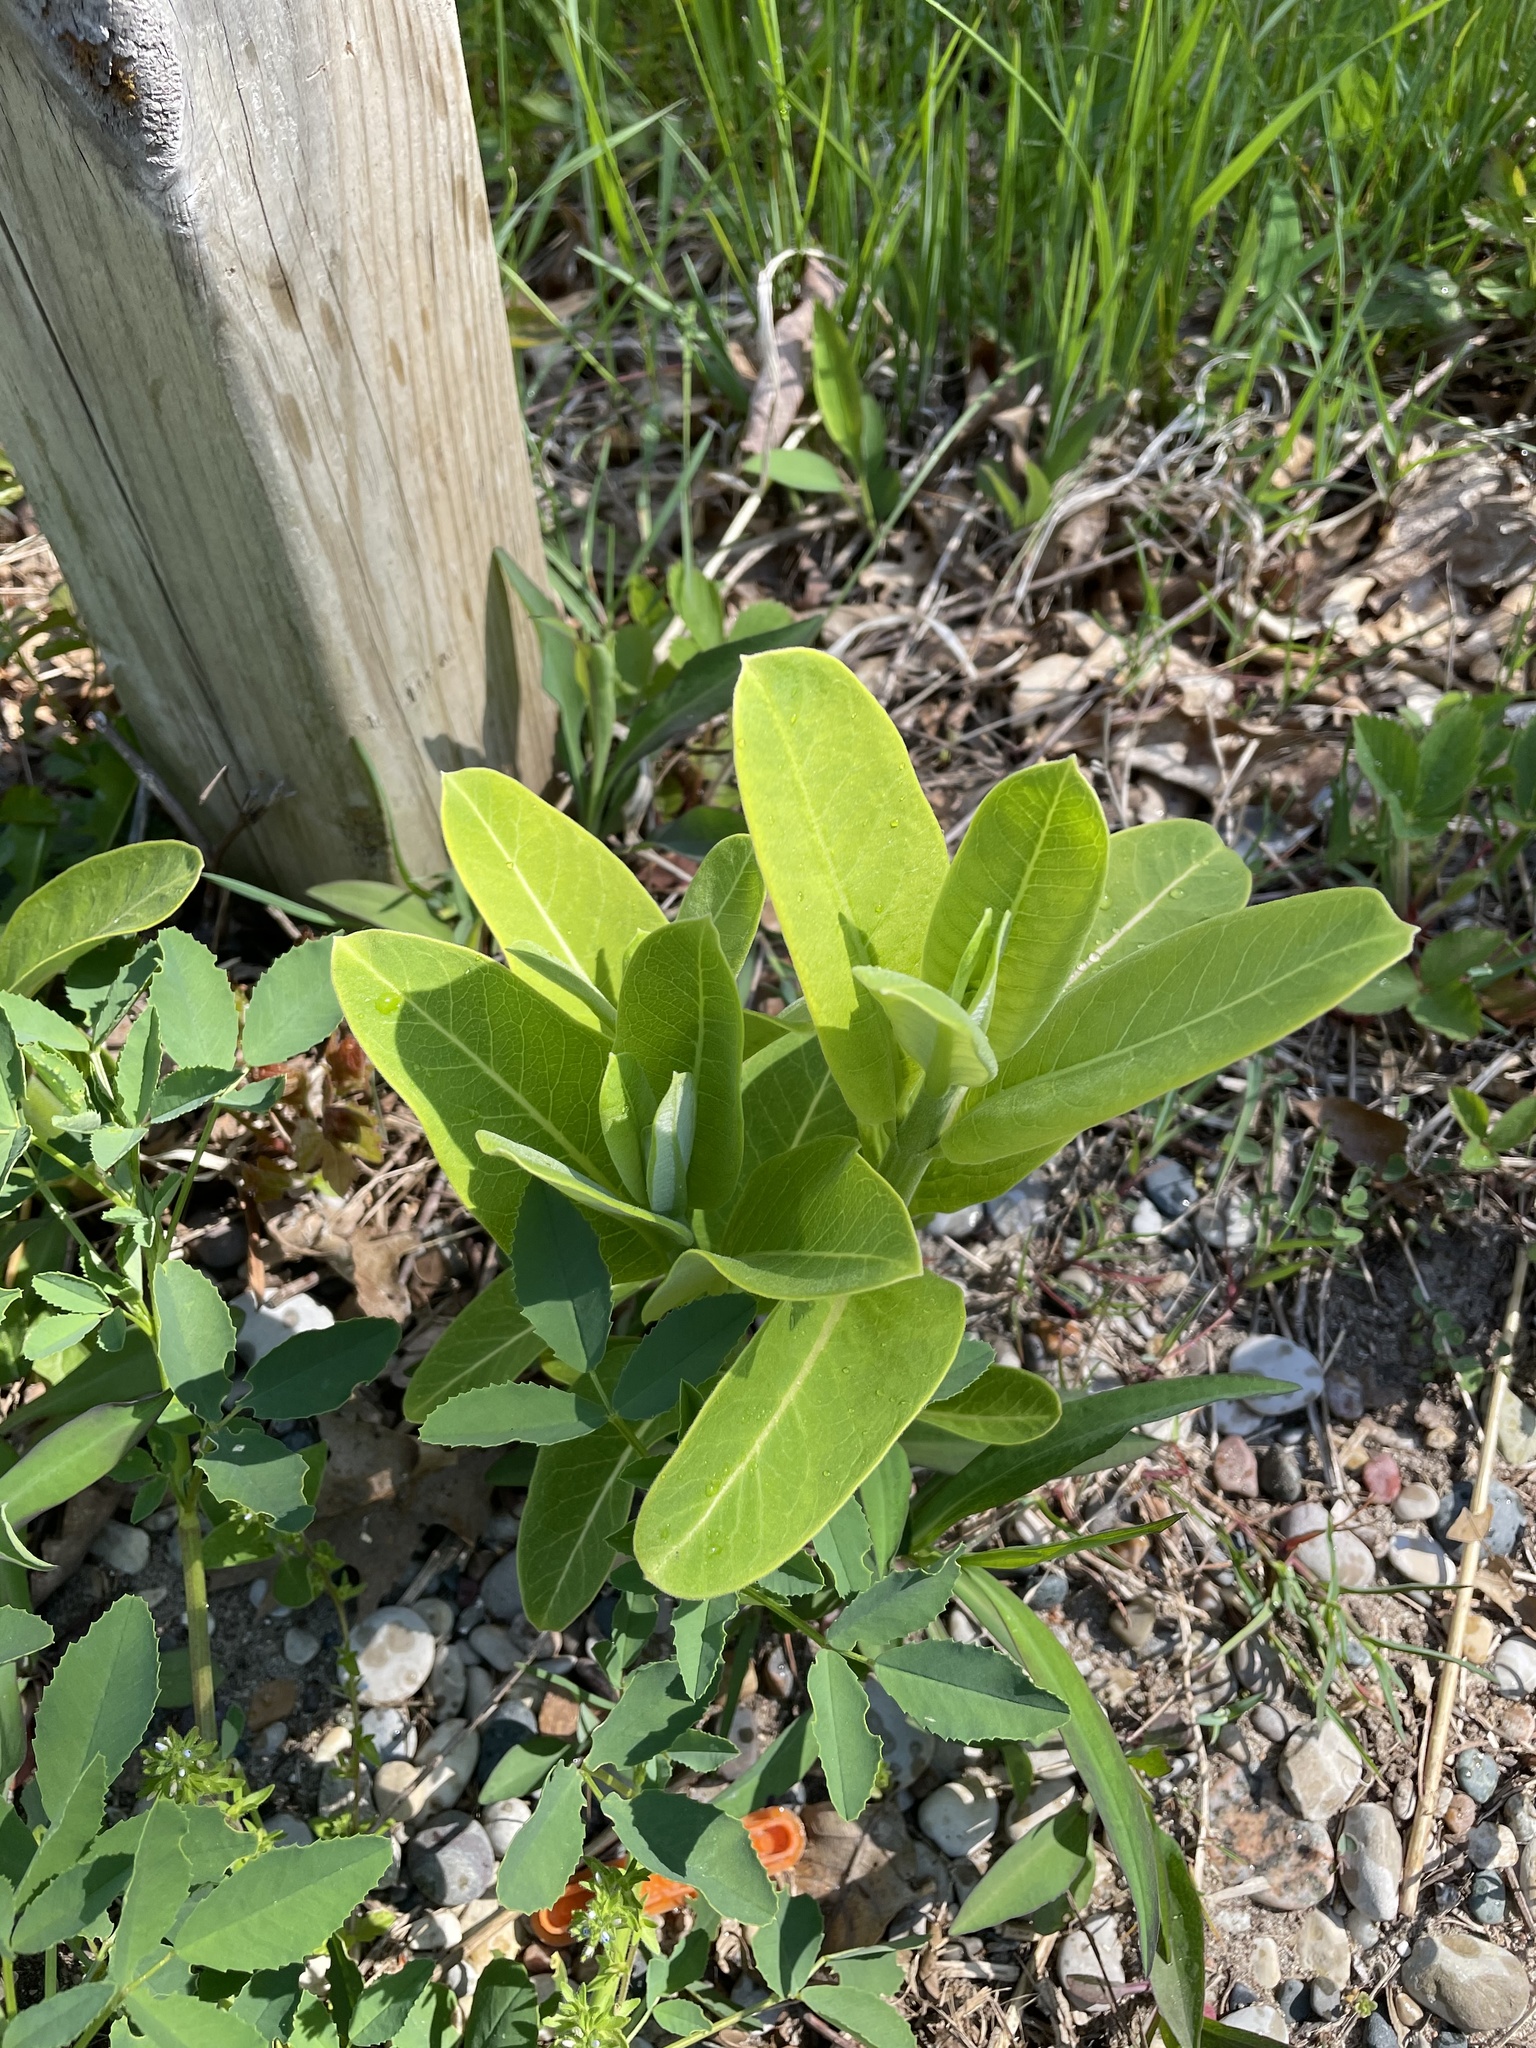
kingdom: Plantae
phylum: Tracheophyta
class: Magnoliopsida
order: Gentianales
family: Apocynaceae
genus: Asclepias
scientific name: Asclepias syriaca
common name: Common milkweed
